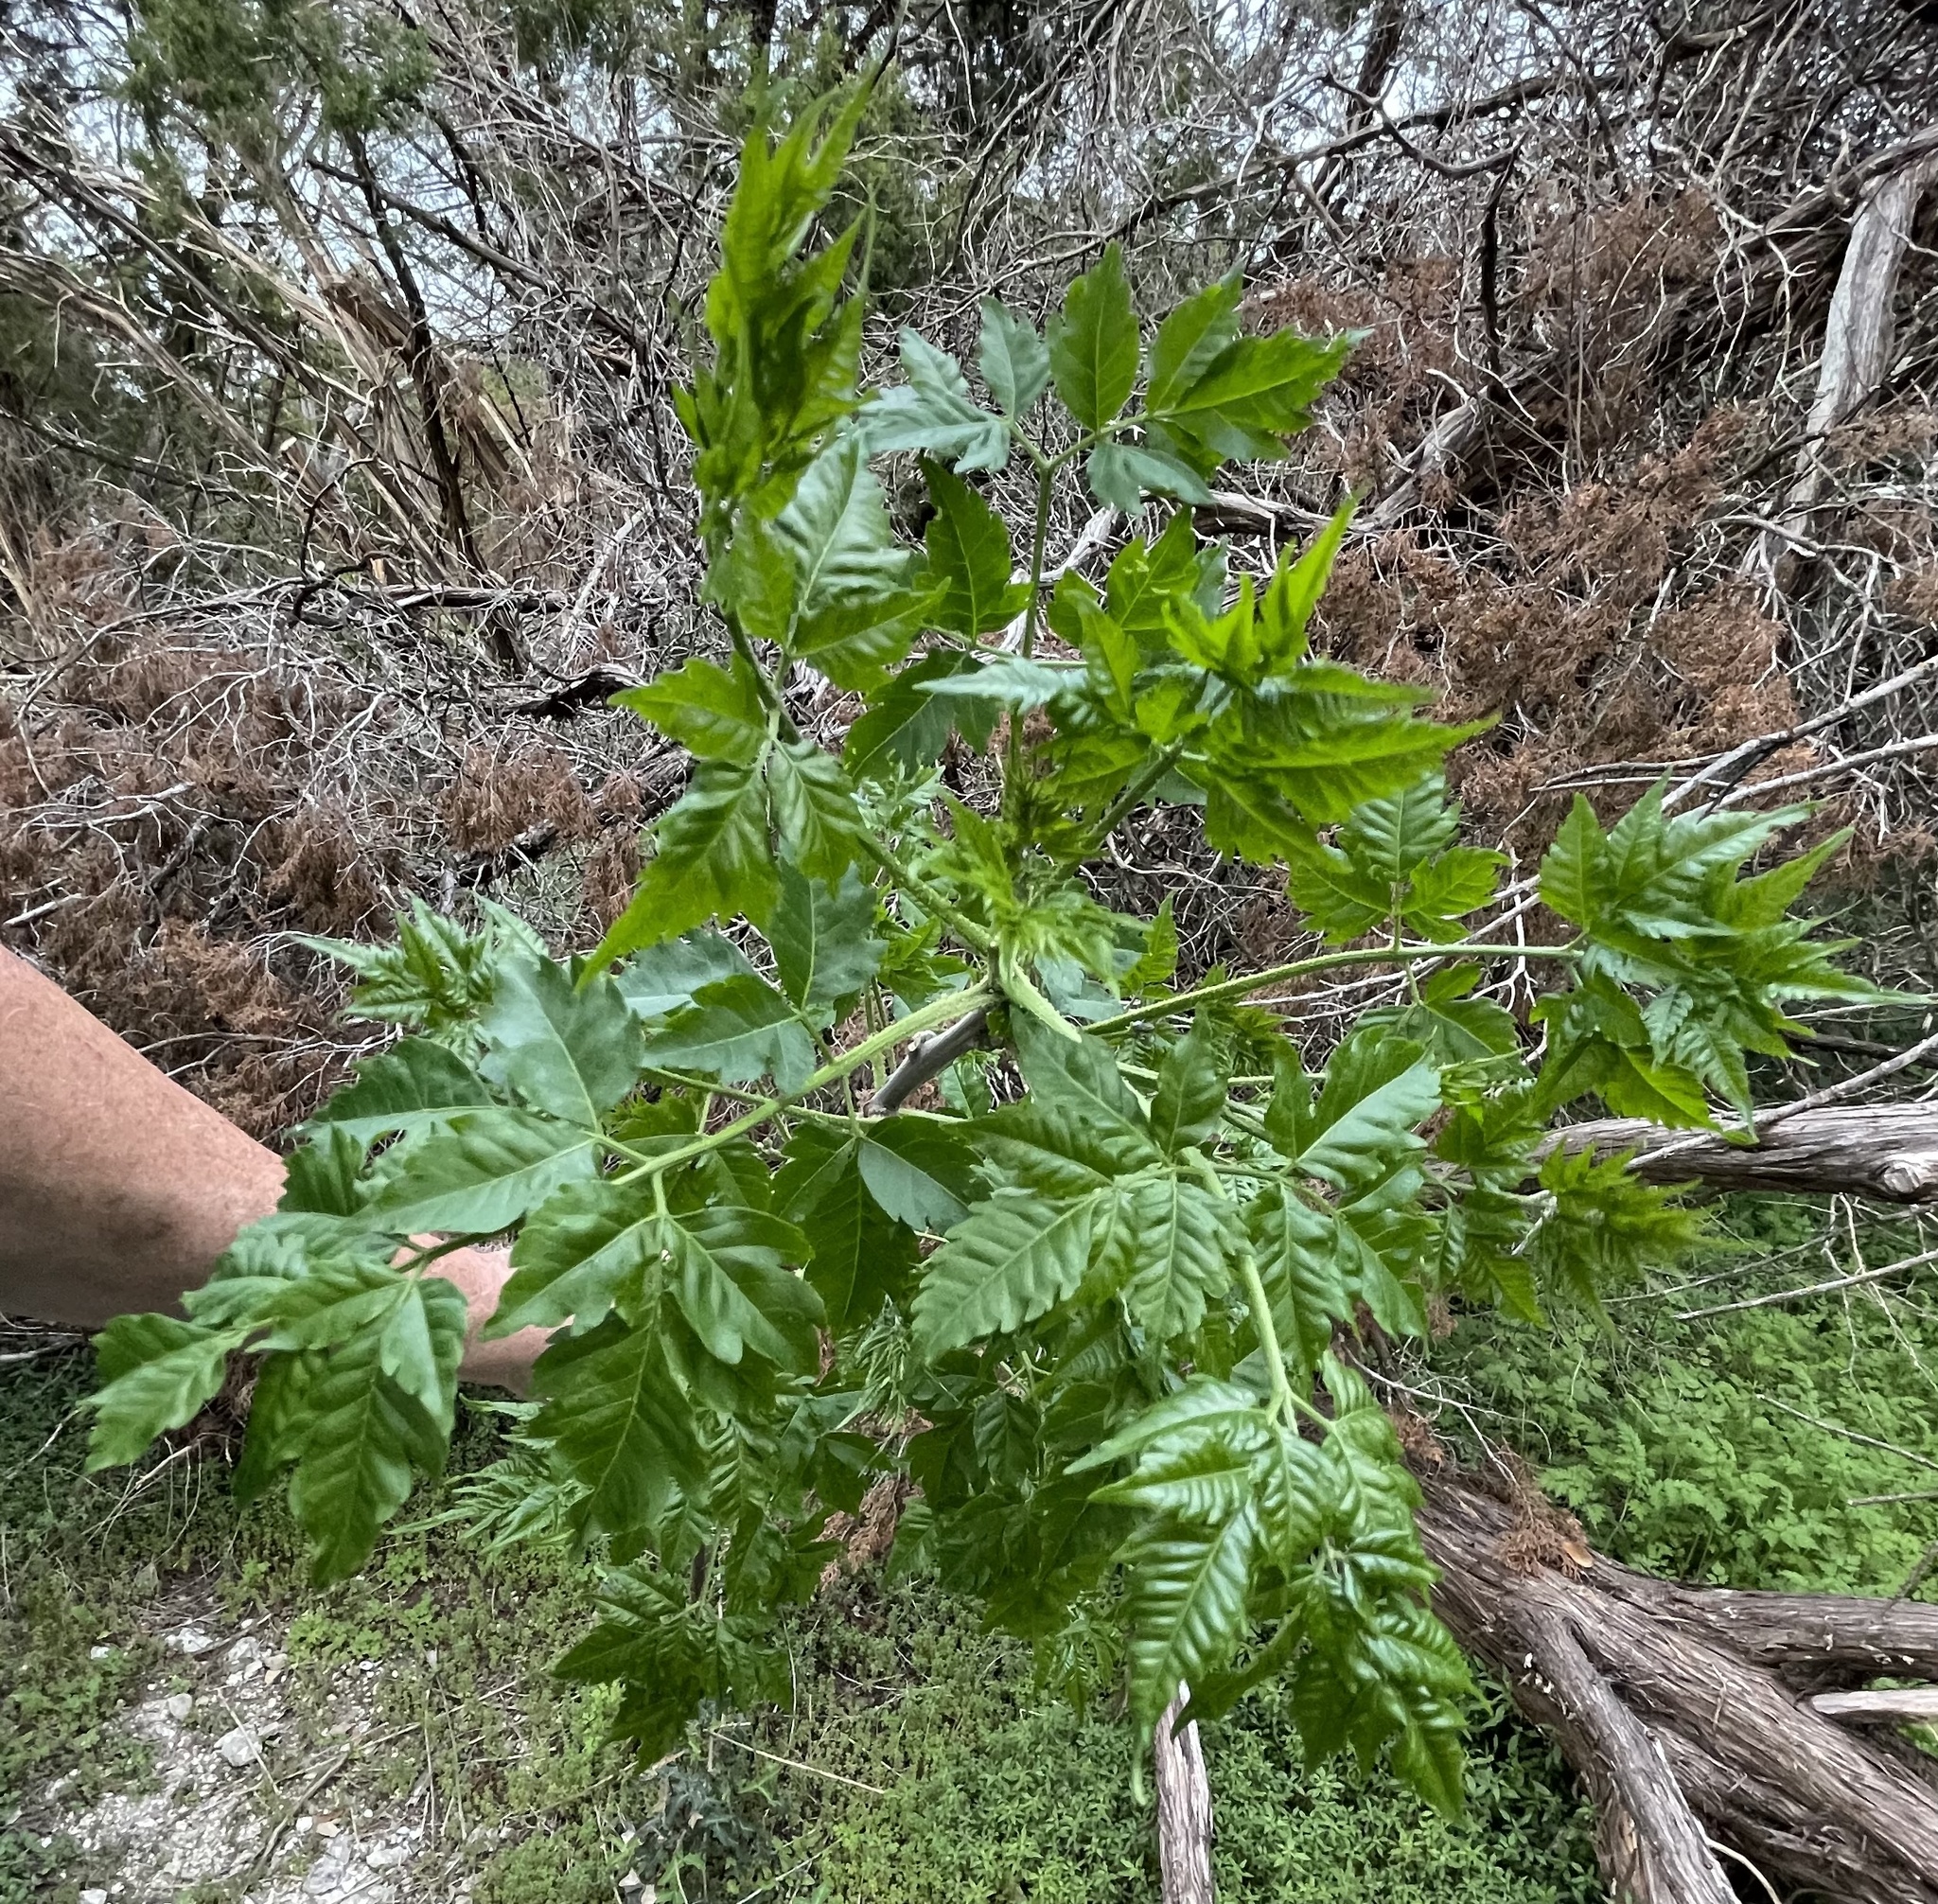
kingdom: Plantae
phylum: Tracheophyta
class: Magnoliopsida
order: Sapindales
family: Meliaceae
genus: Melia
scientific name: Melia azedarach
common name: Chinaberrytree
